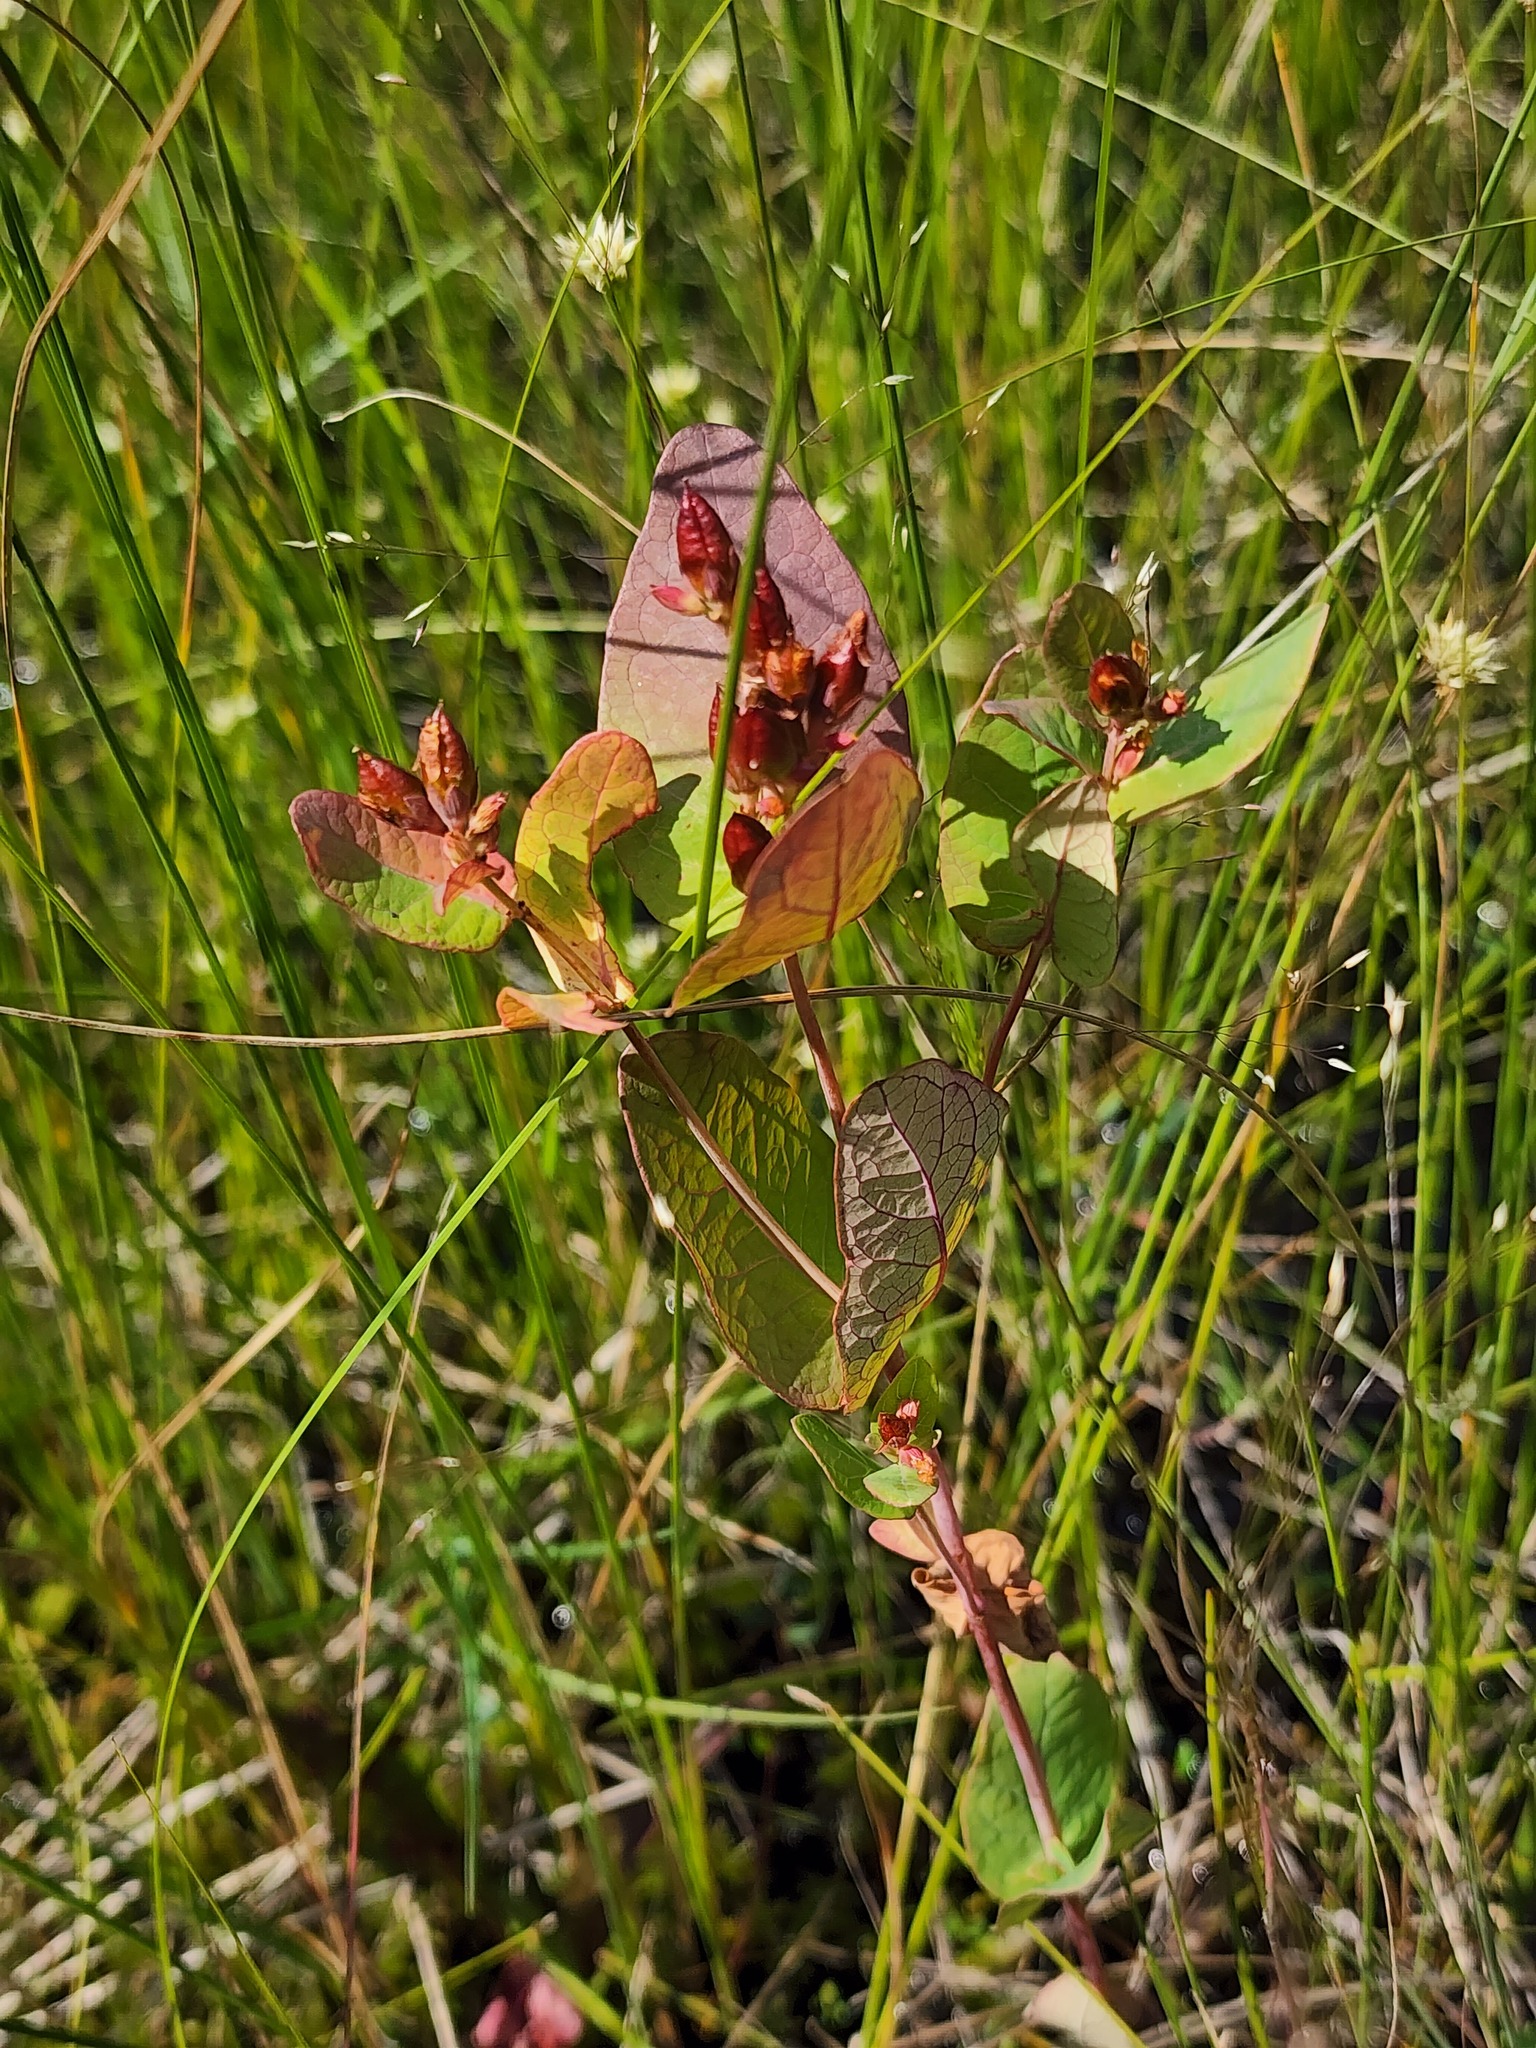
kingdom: Plantae
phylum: Tracheophyta
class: Magnoliopsida
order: Malpighiales
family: Hypericaceae
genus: Triadenum
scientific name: Triadenum fraseri
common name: Fraser's marsh st. johnswort
